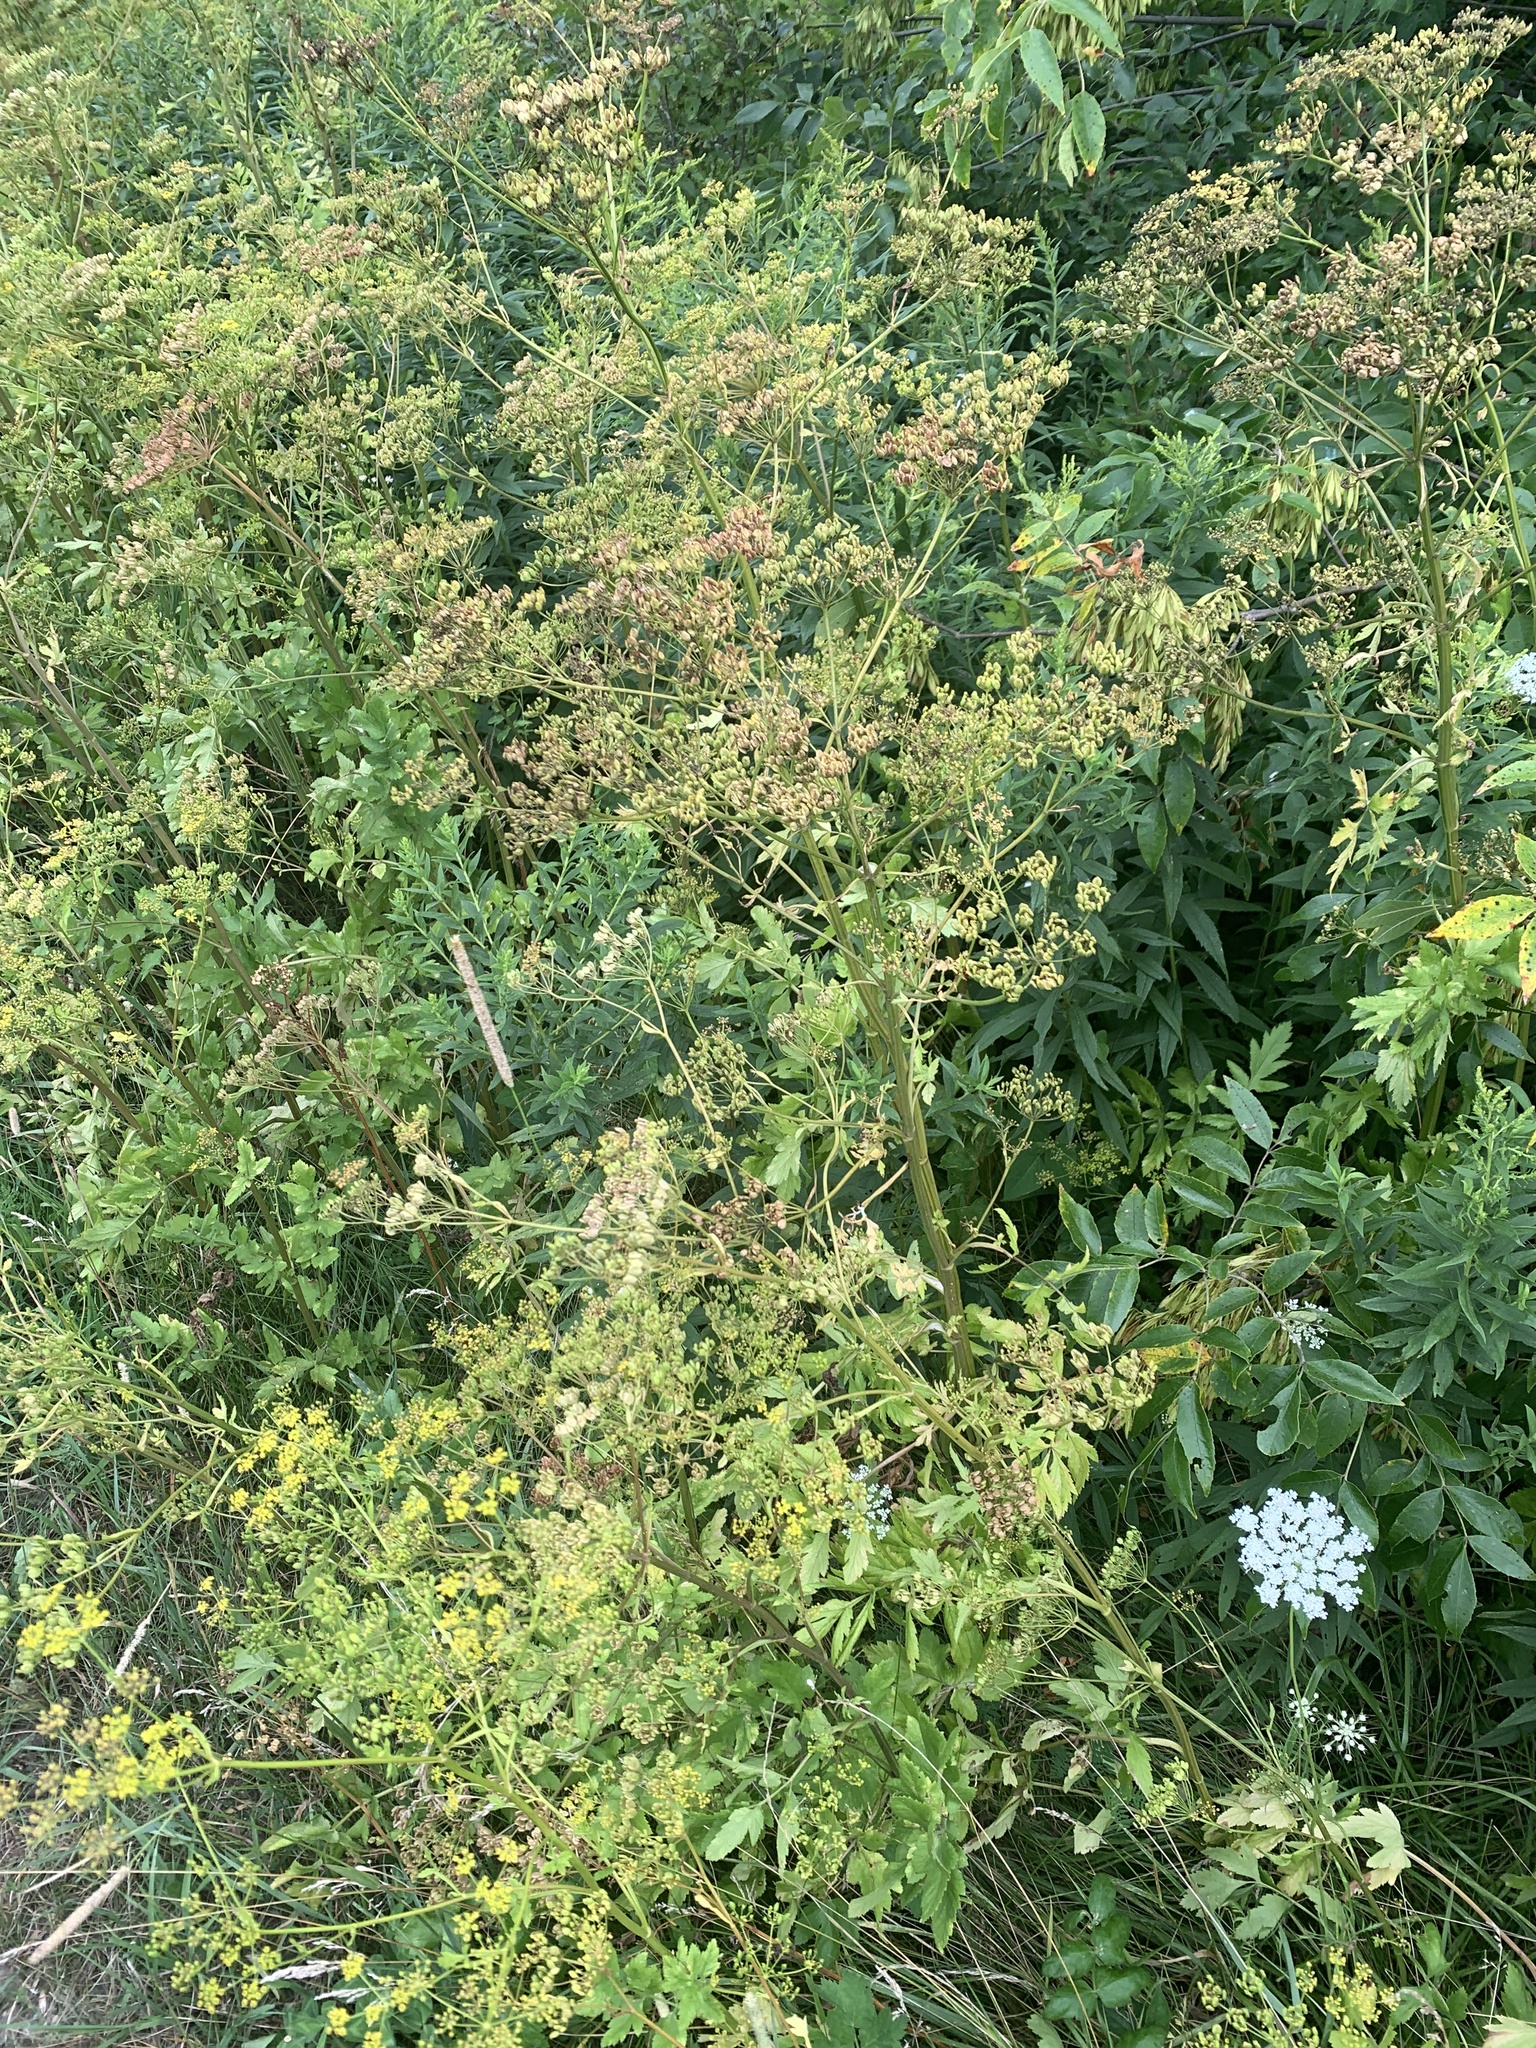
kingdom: Plantae
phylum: Tracheophyta
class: Magnoliopsida
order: Apiales
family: Apiaceae
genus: Pastinaca
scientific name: Pastinaca sativa
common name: Wild parsnip
